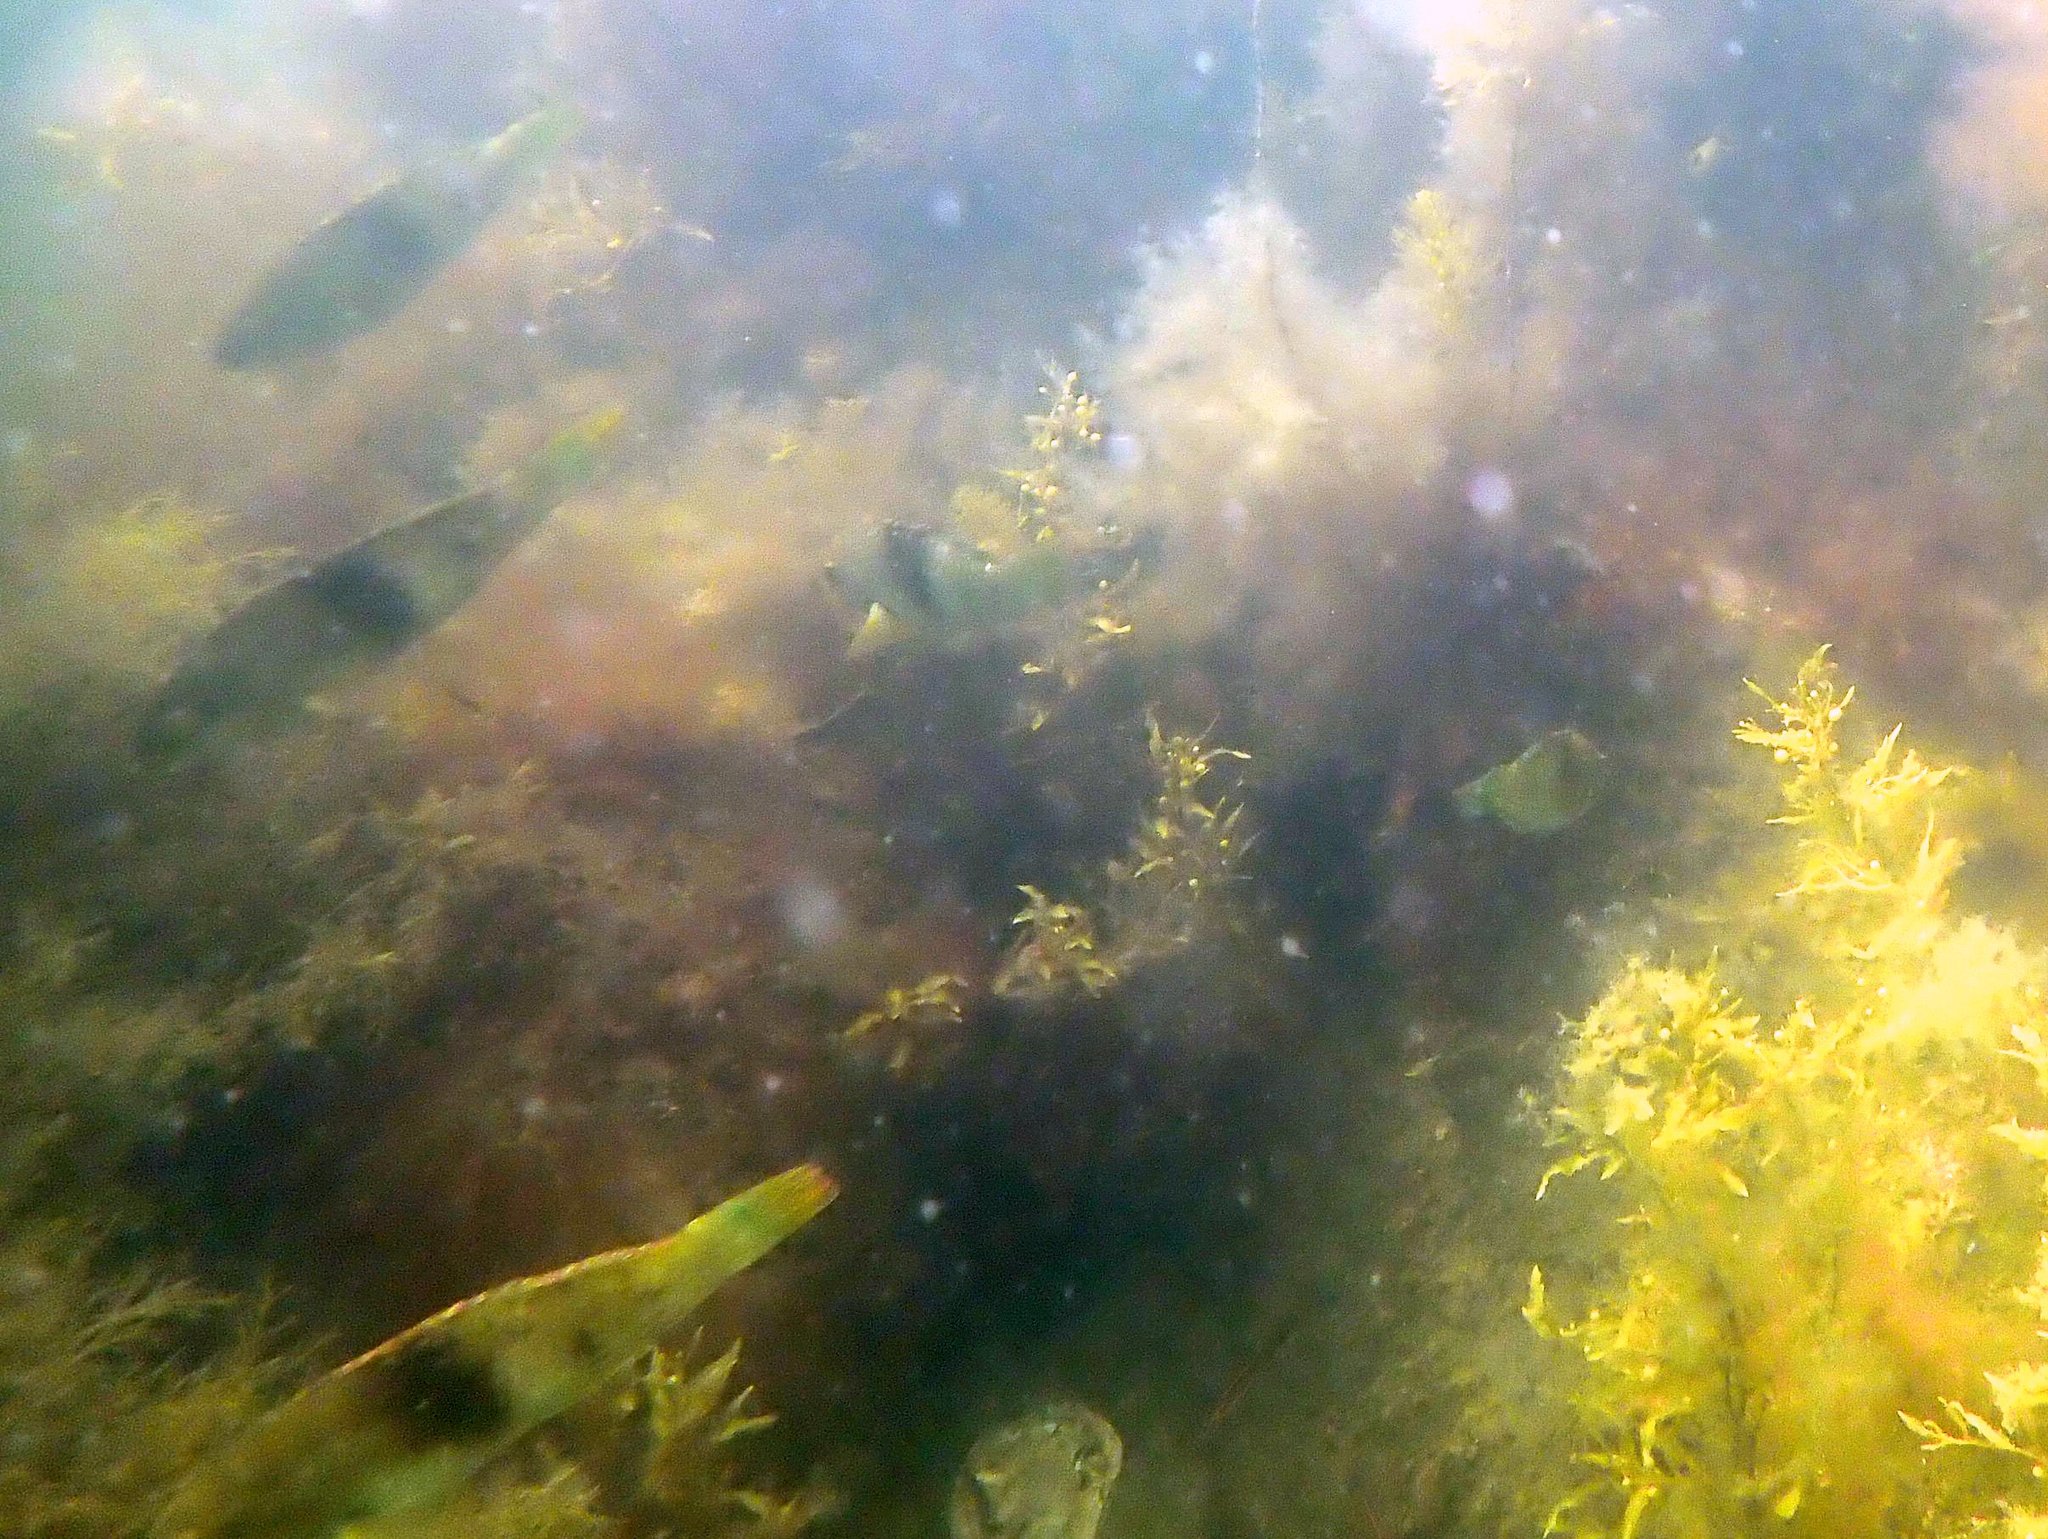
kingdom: Animalia
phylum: Chordata
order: Perciformes
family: Labridae
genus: Notolabrus
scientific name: Notolabrus tetricus
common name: Blue-throated parrotfish
